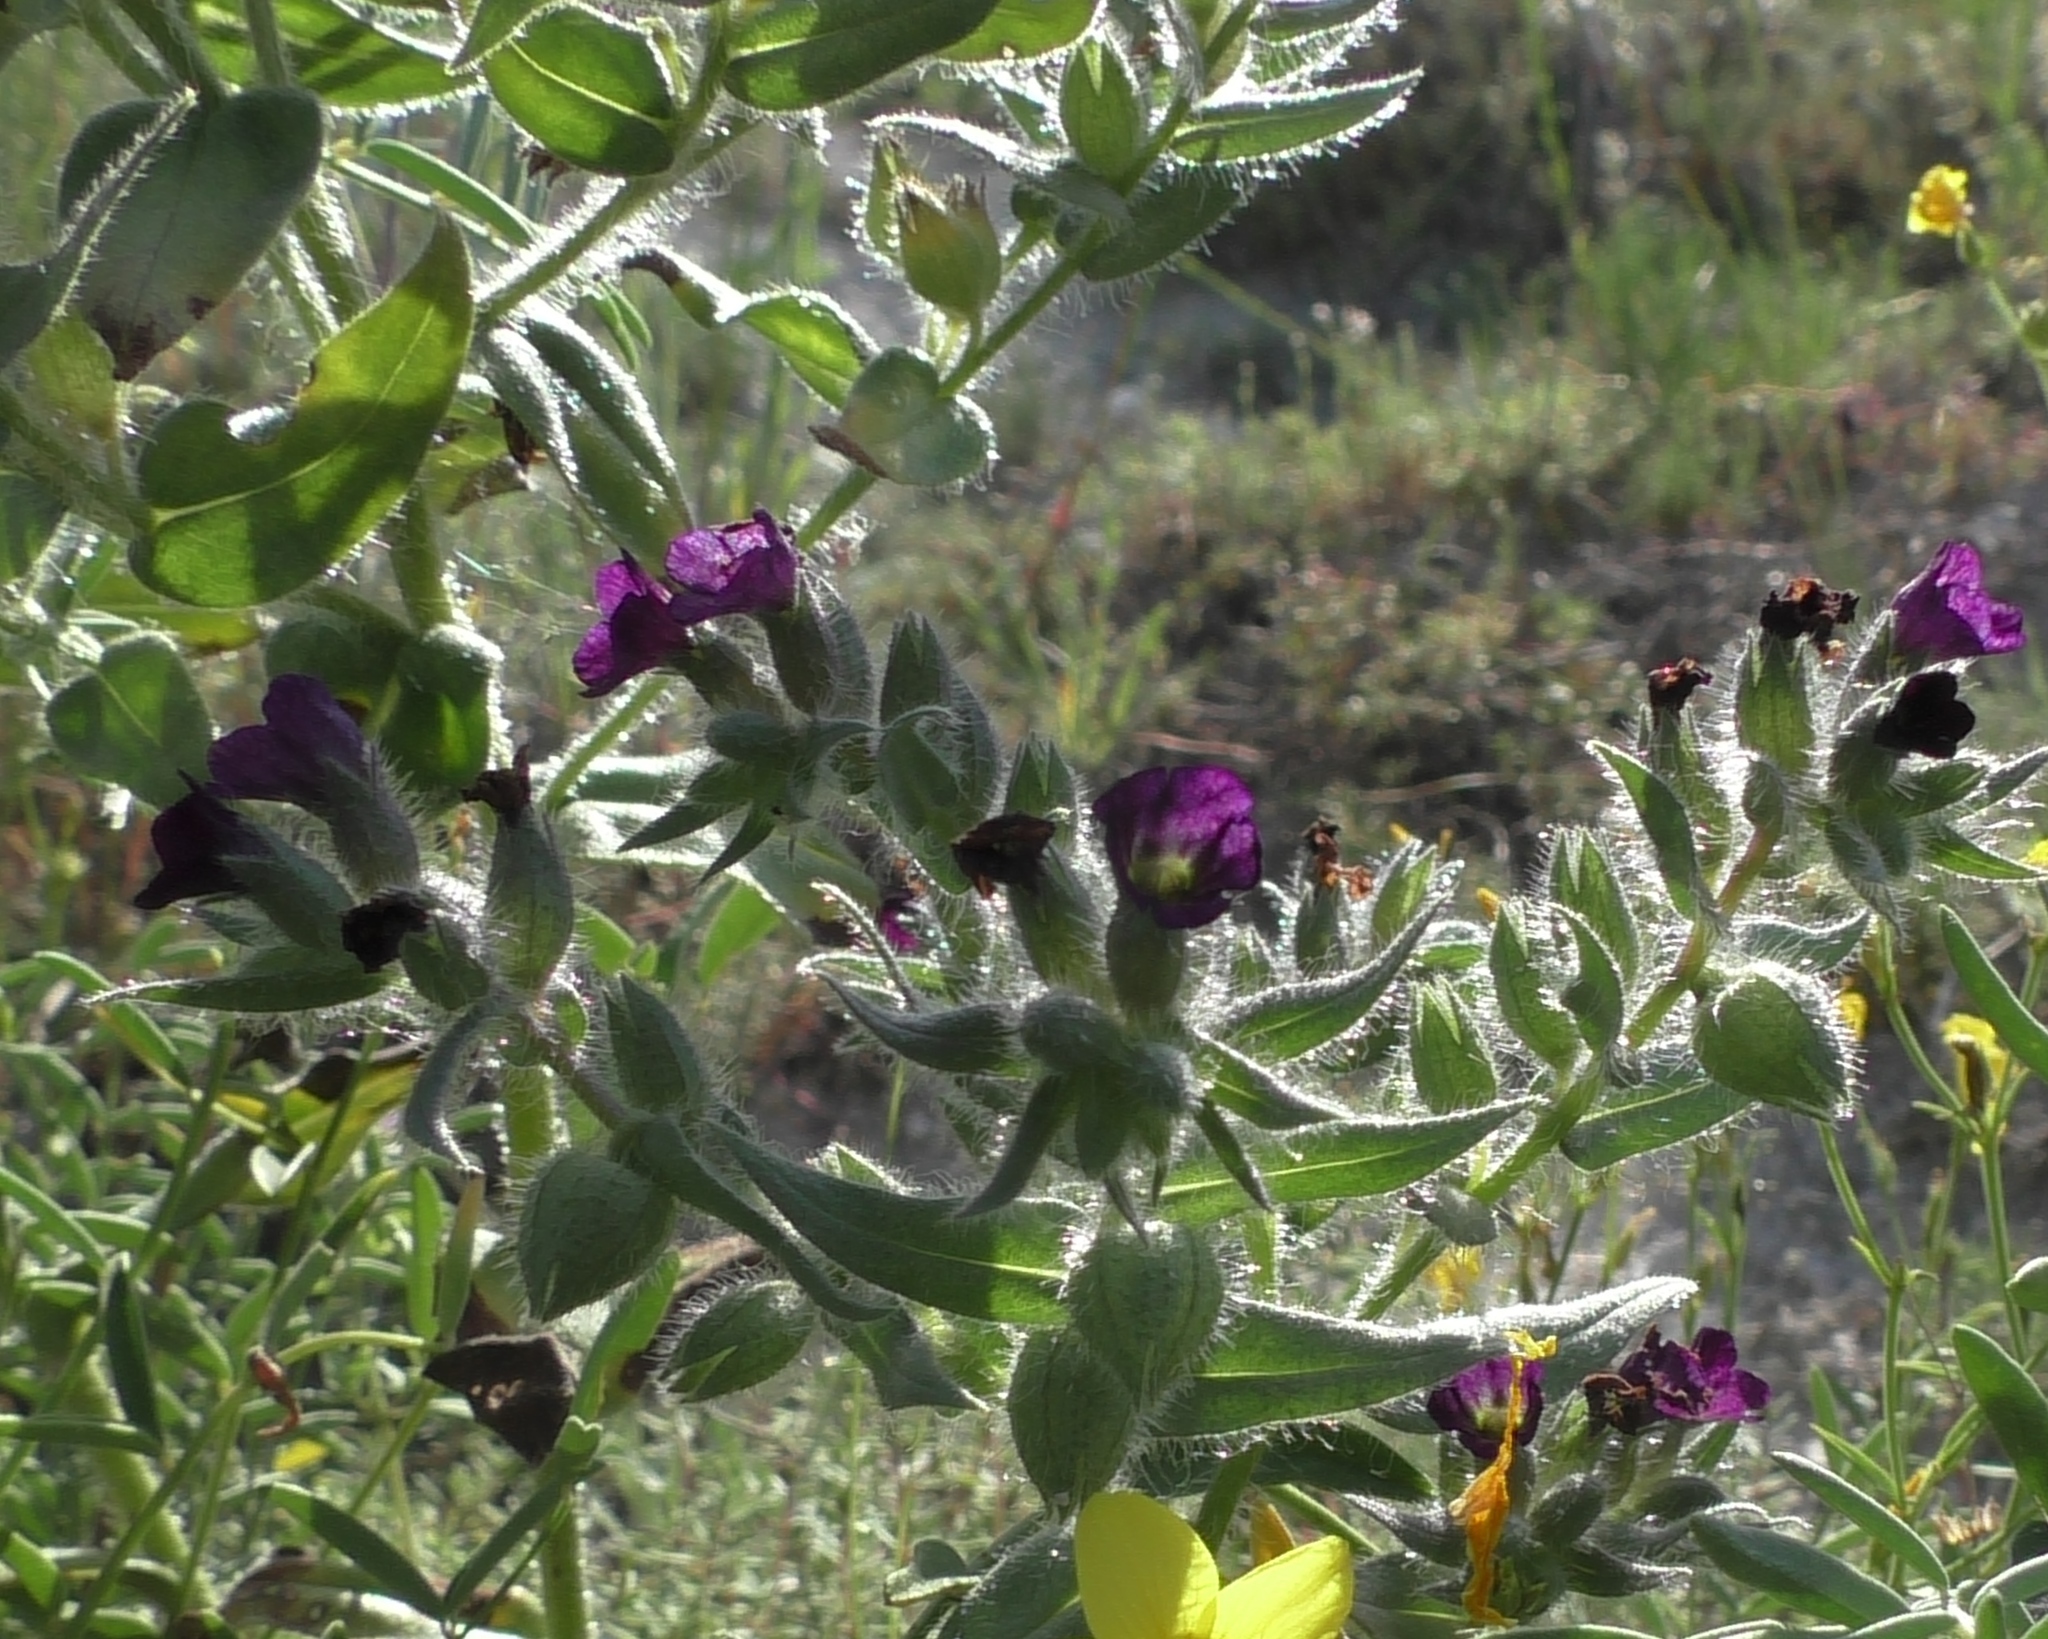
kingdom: Plantae
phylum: Tracheophyta
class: Magnoliopsida
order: Boraginales
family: Boraginaceae
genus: Nonea
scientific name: Nonea pulla
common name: Brown nonea
